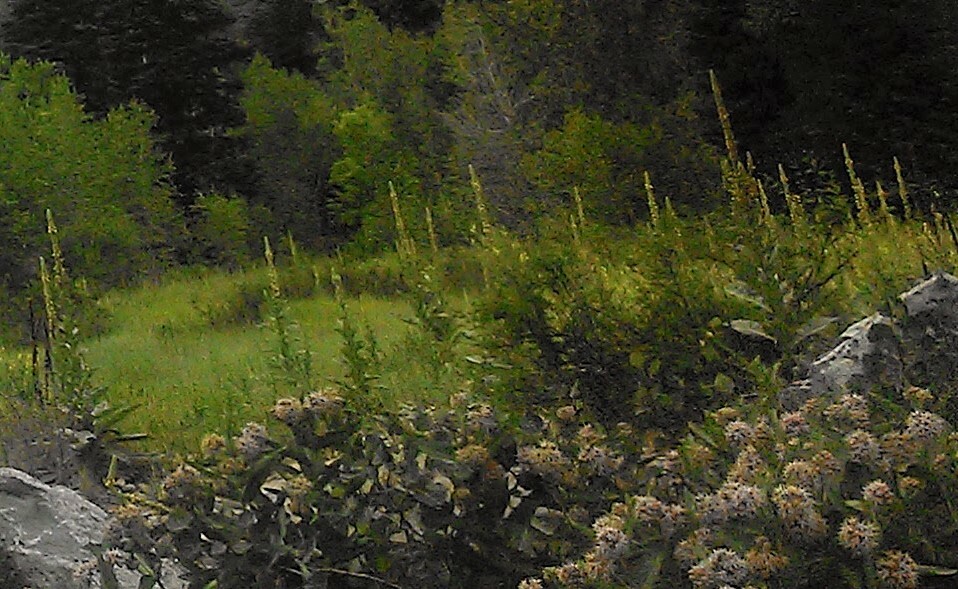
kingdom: Plantae
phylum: Tracheophyta
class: Magnoliopsida
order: Lamiales
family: Scrophulariaceae
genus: Verbascum
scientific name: Verbascum thapsus
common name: Common mullein
